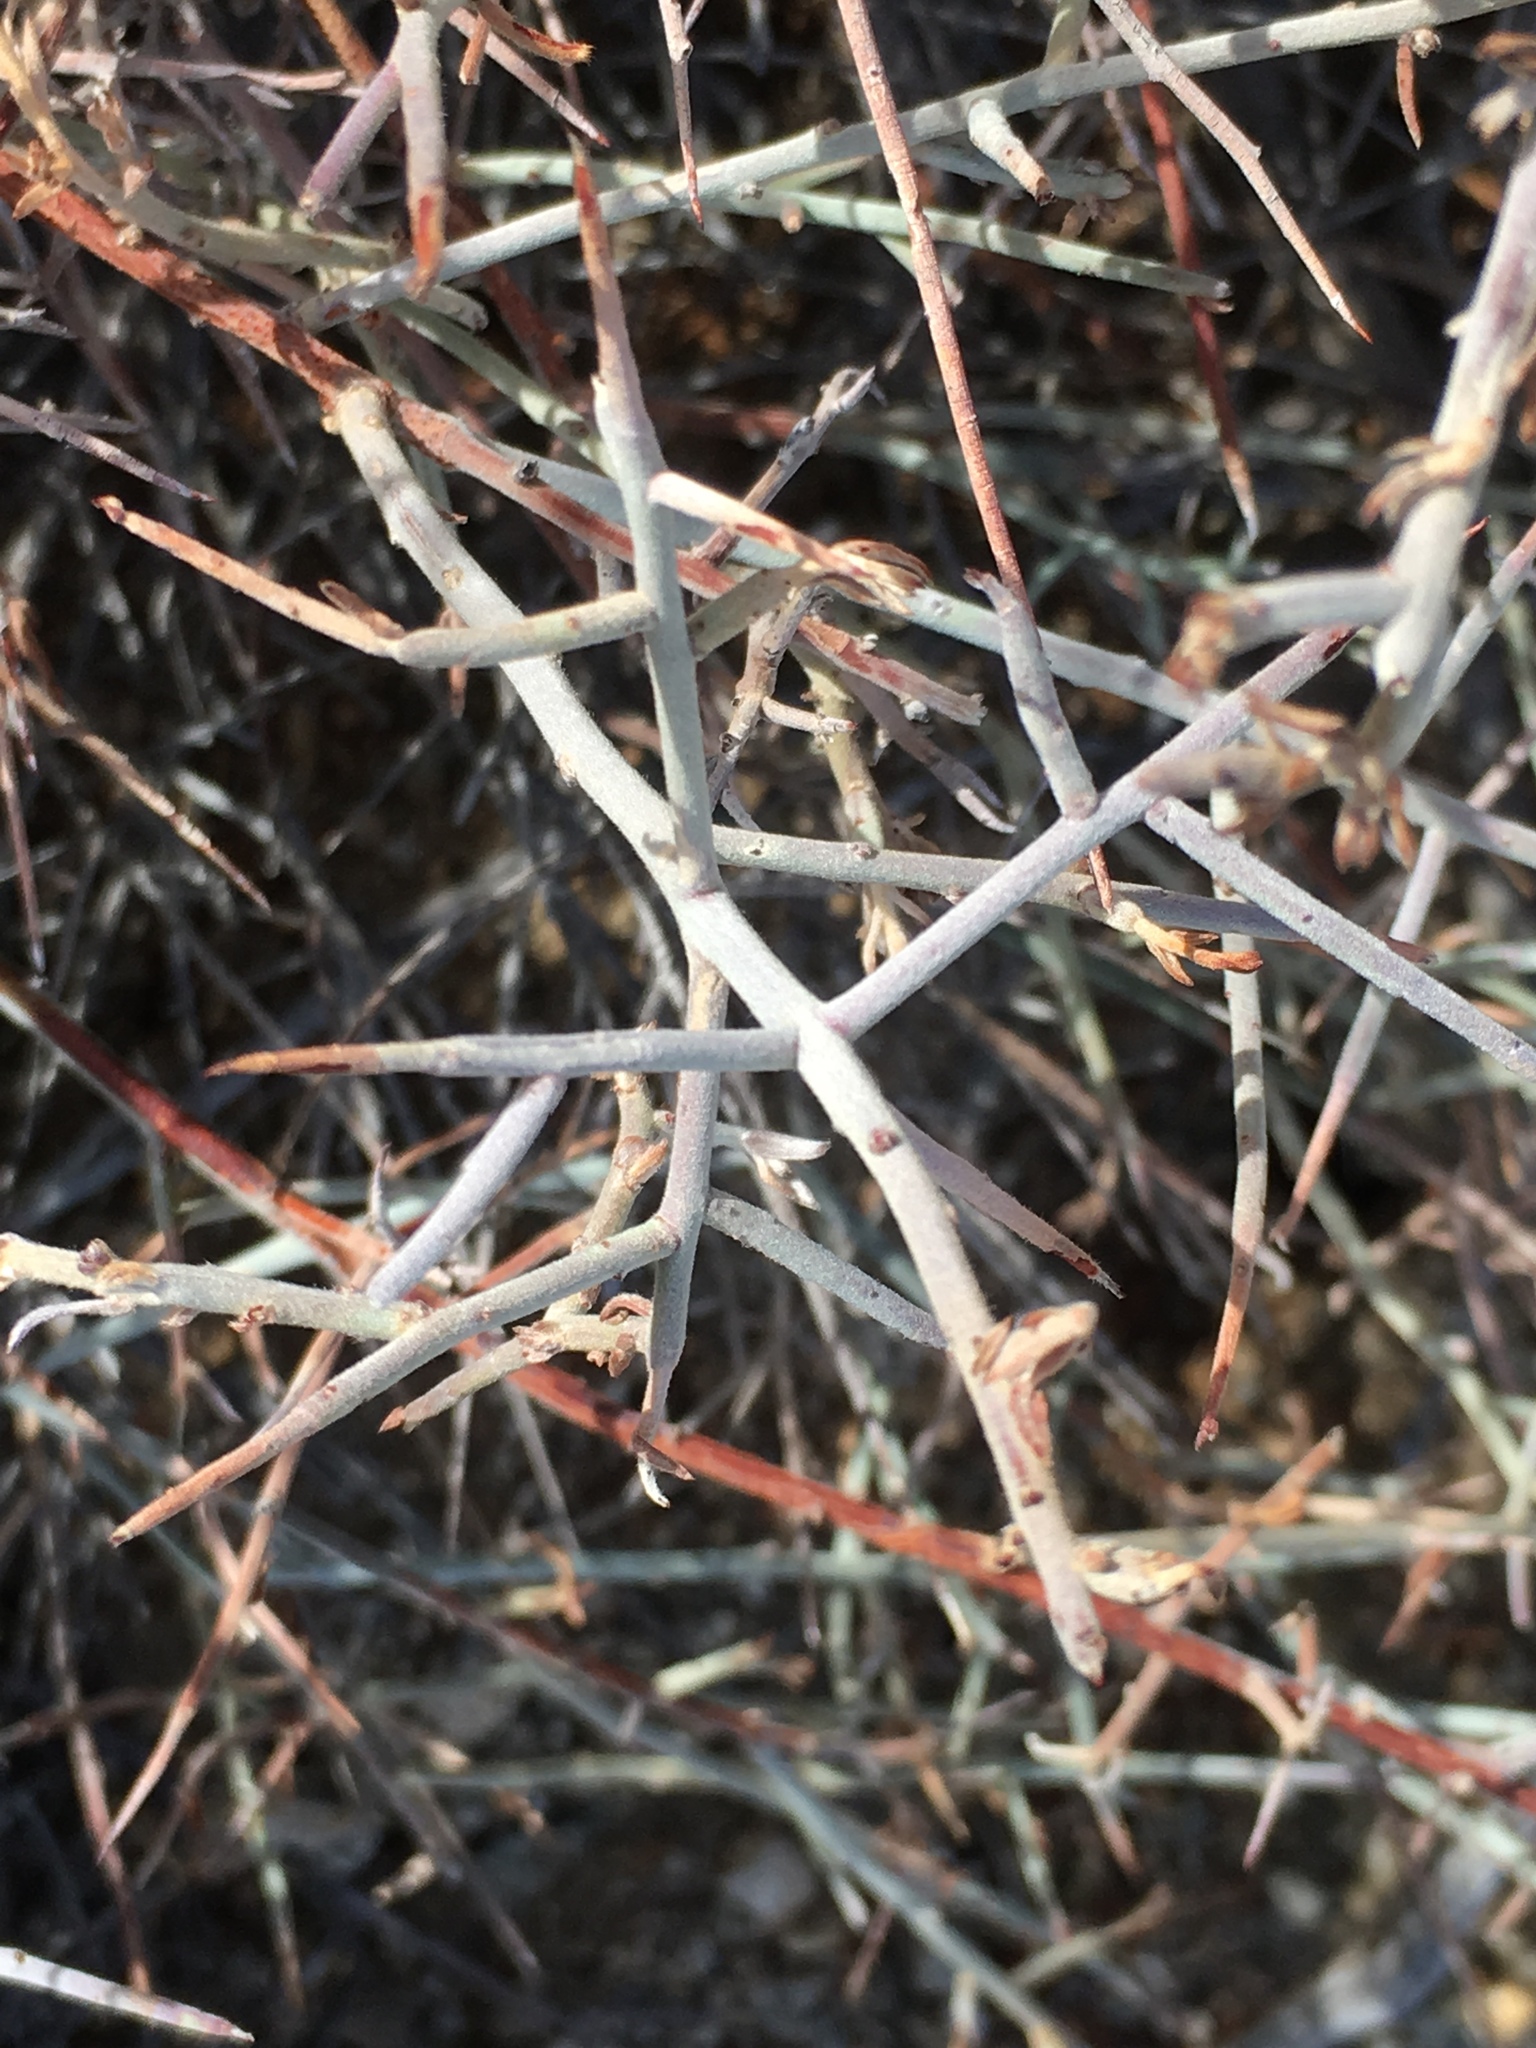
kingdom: Plantae
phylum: Tracheophyta
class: Magnoliopsida
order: Zygophyllales
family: Krameriaceae
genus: Krameria
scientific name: Krameria bicolor
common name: White ratany
